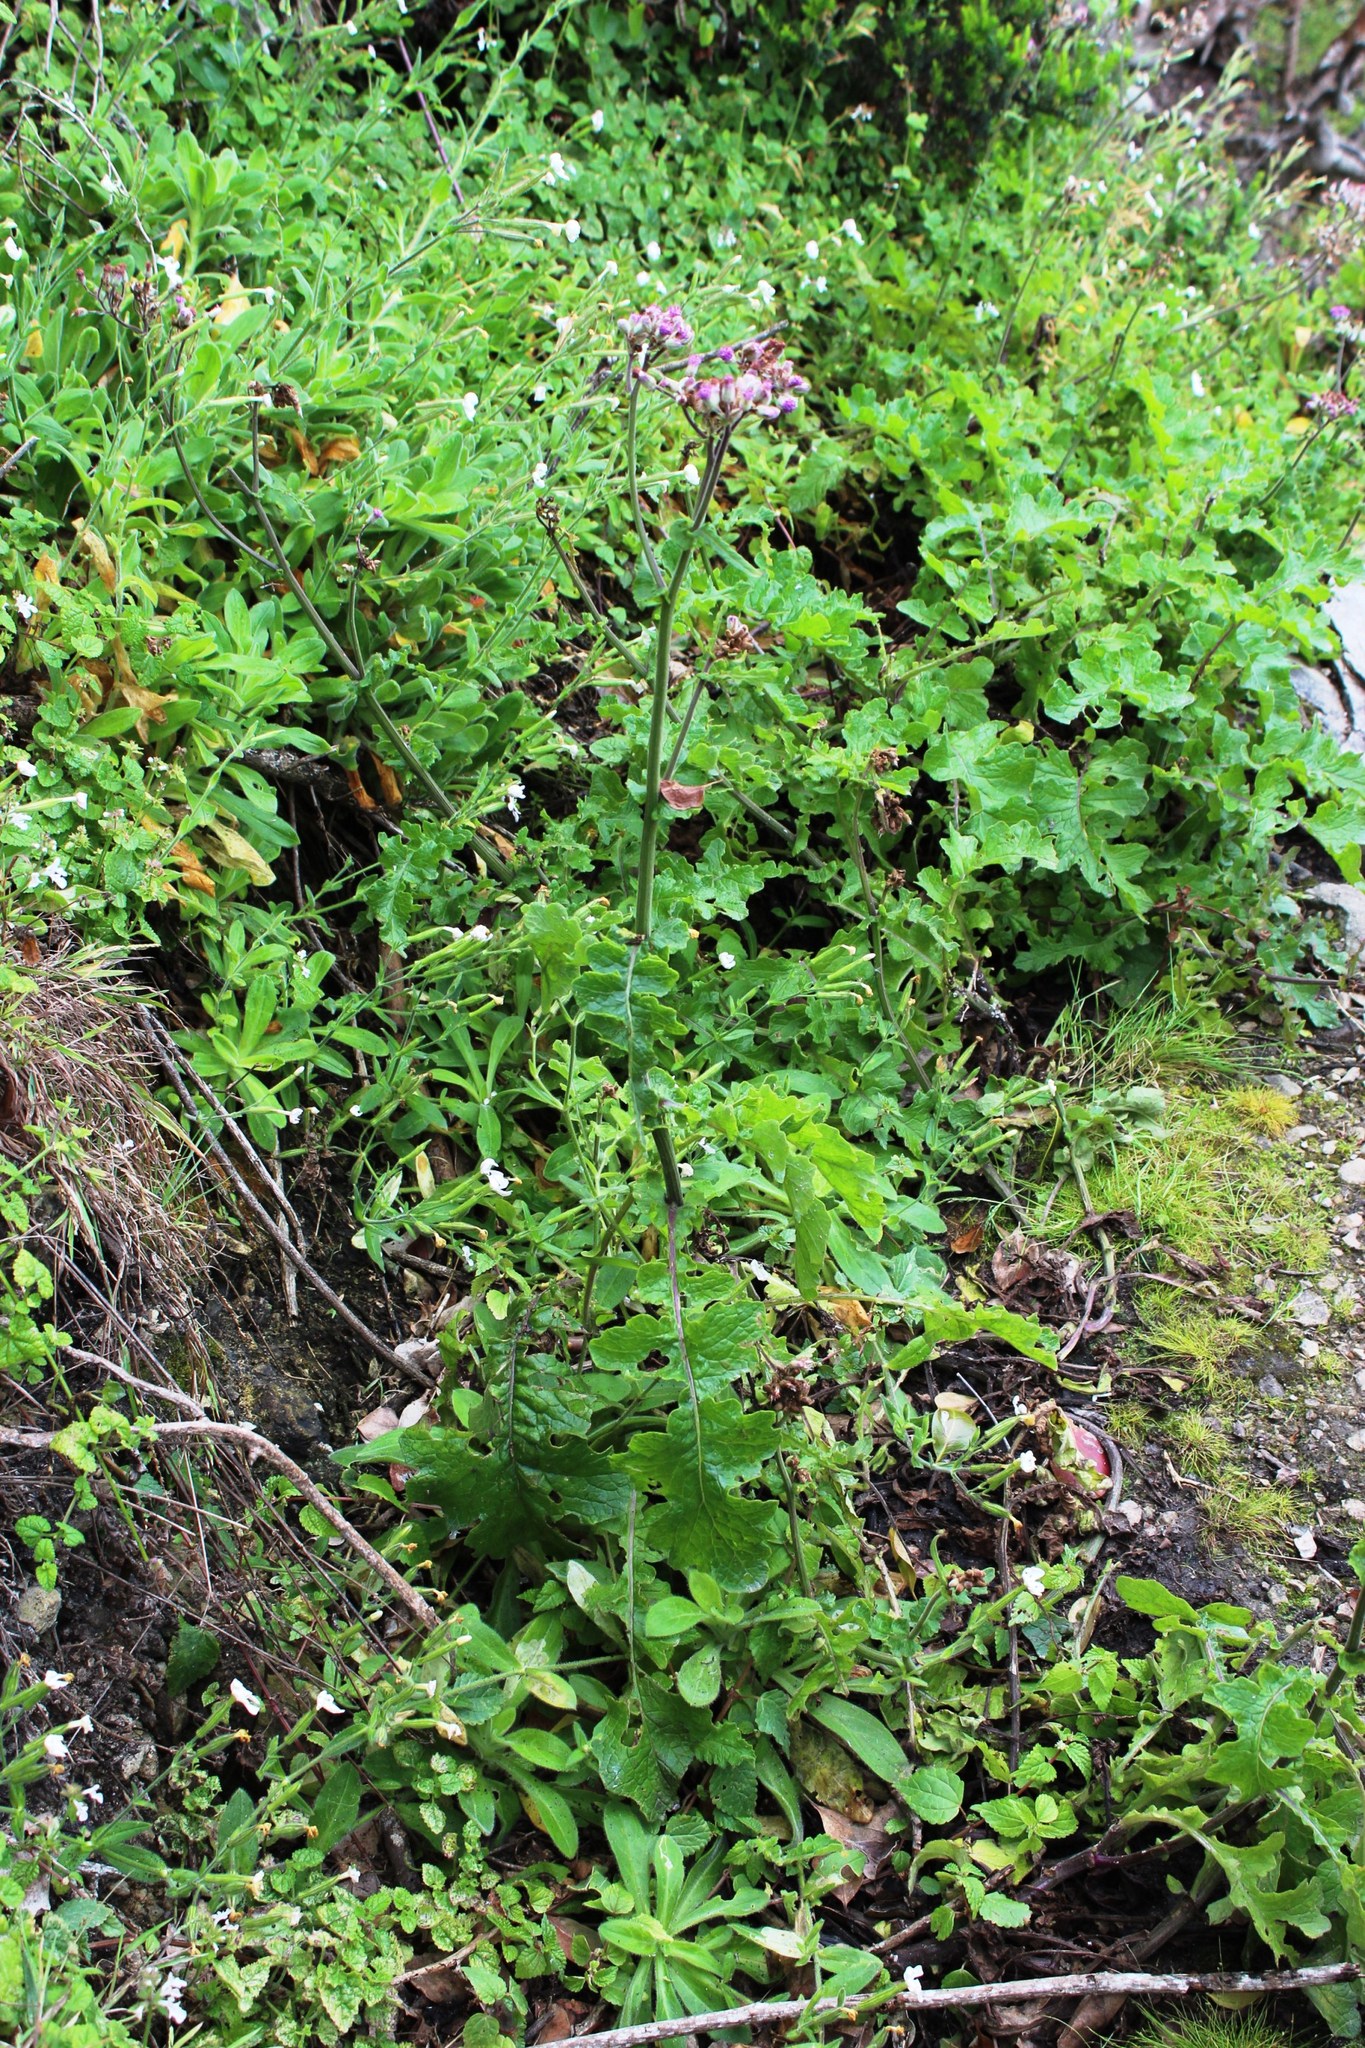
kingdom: Plantae
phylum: Tracheophyta
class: Magnoliopsida
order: Asterales
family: Asteraceae
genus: Senecio
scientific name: Senecio purpureus
